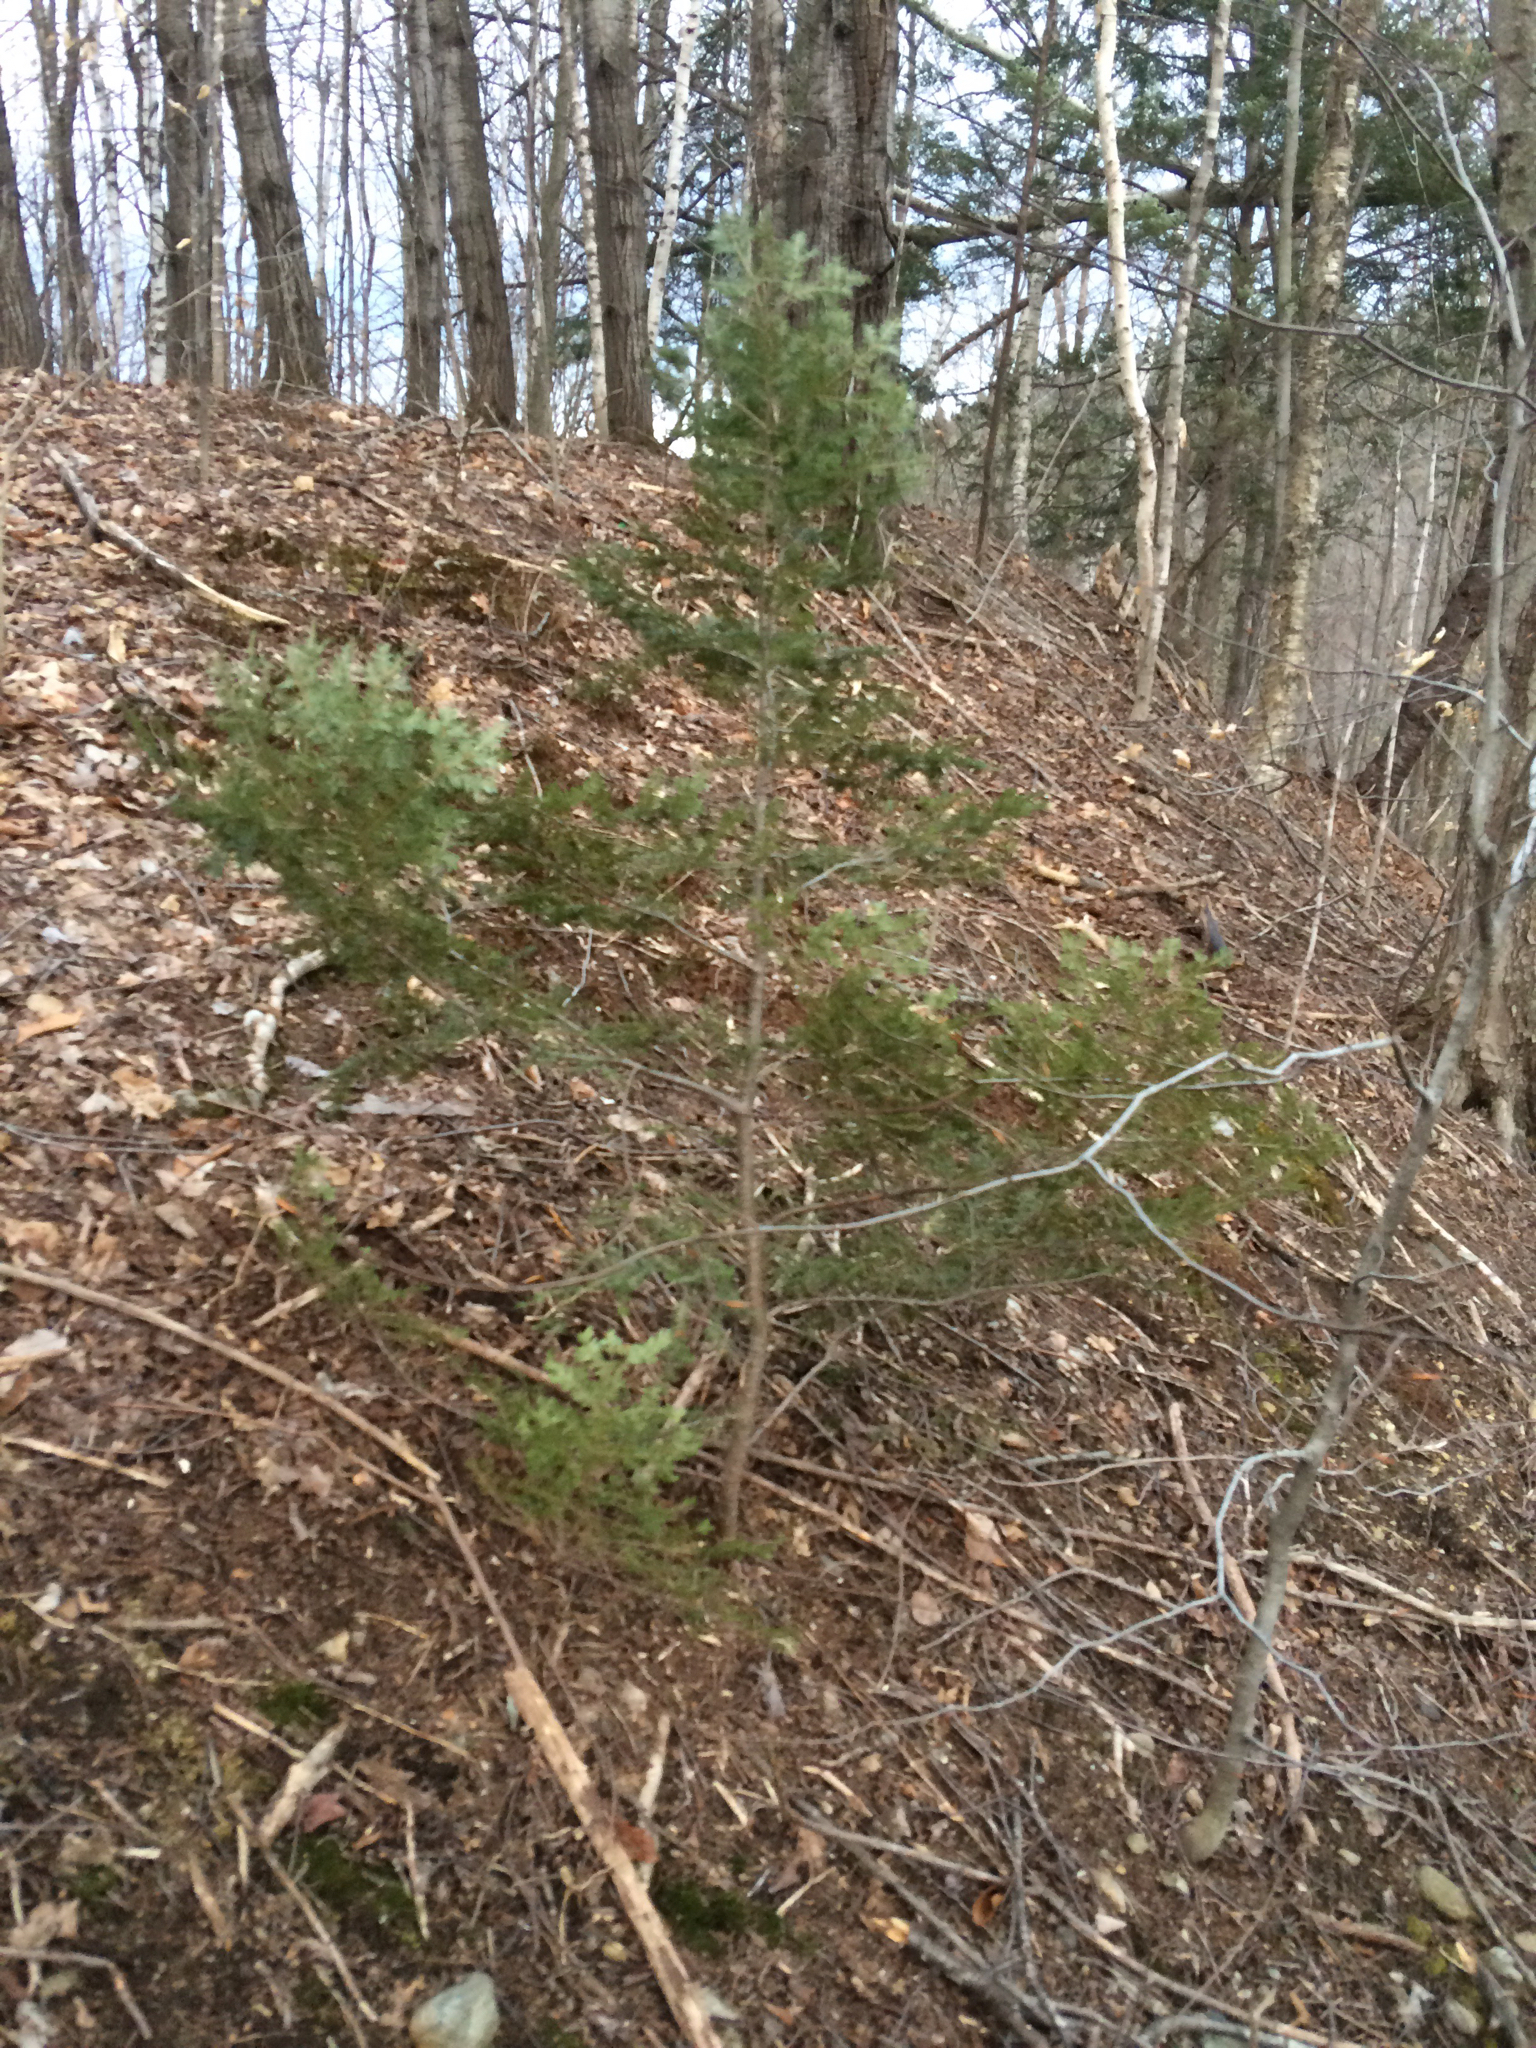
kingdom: Plantae
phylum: Tracheophyta
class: Pinopsida
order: Pinales
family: Pinaceae
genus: Tsuga
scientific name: Tsuga canadensis
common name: Eastern hemlock
